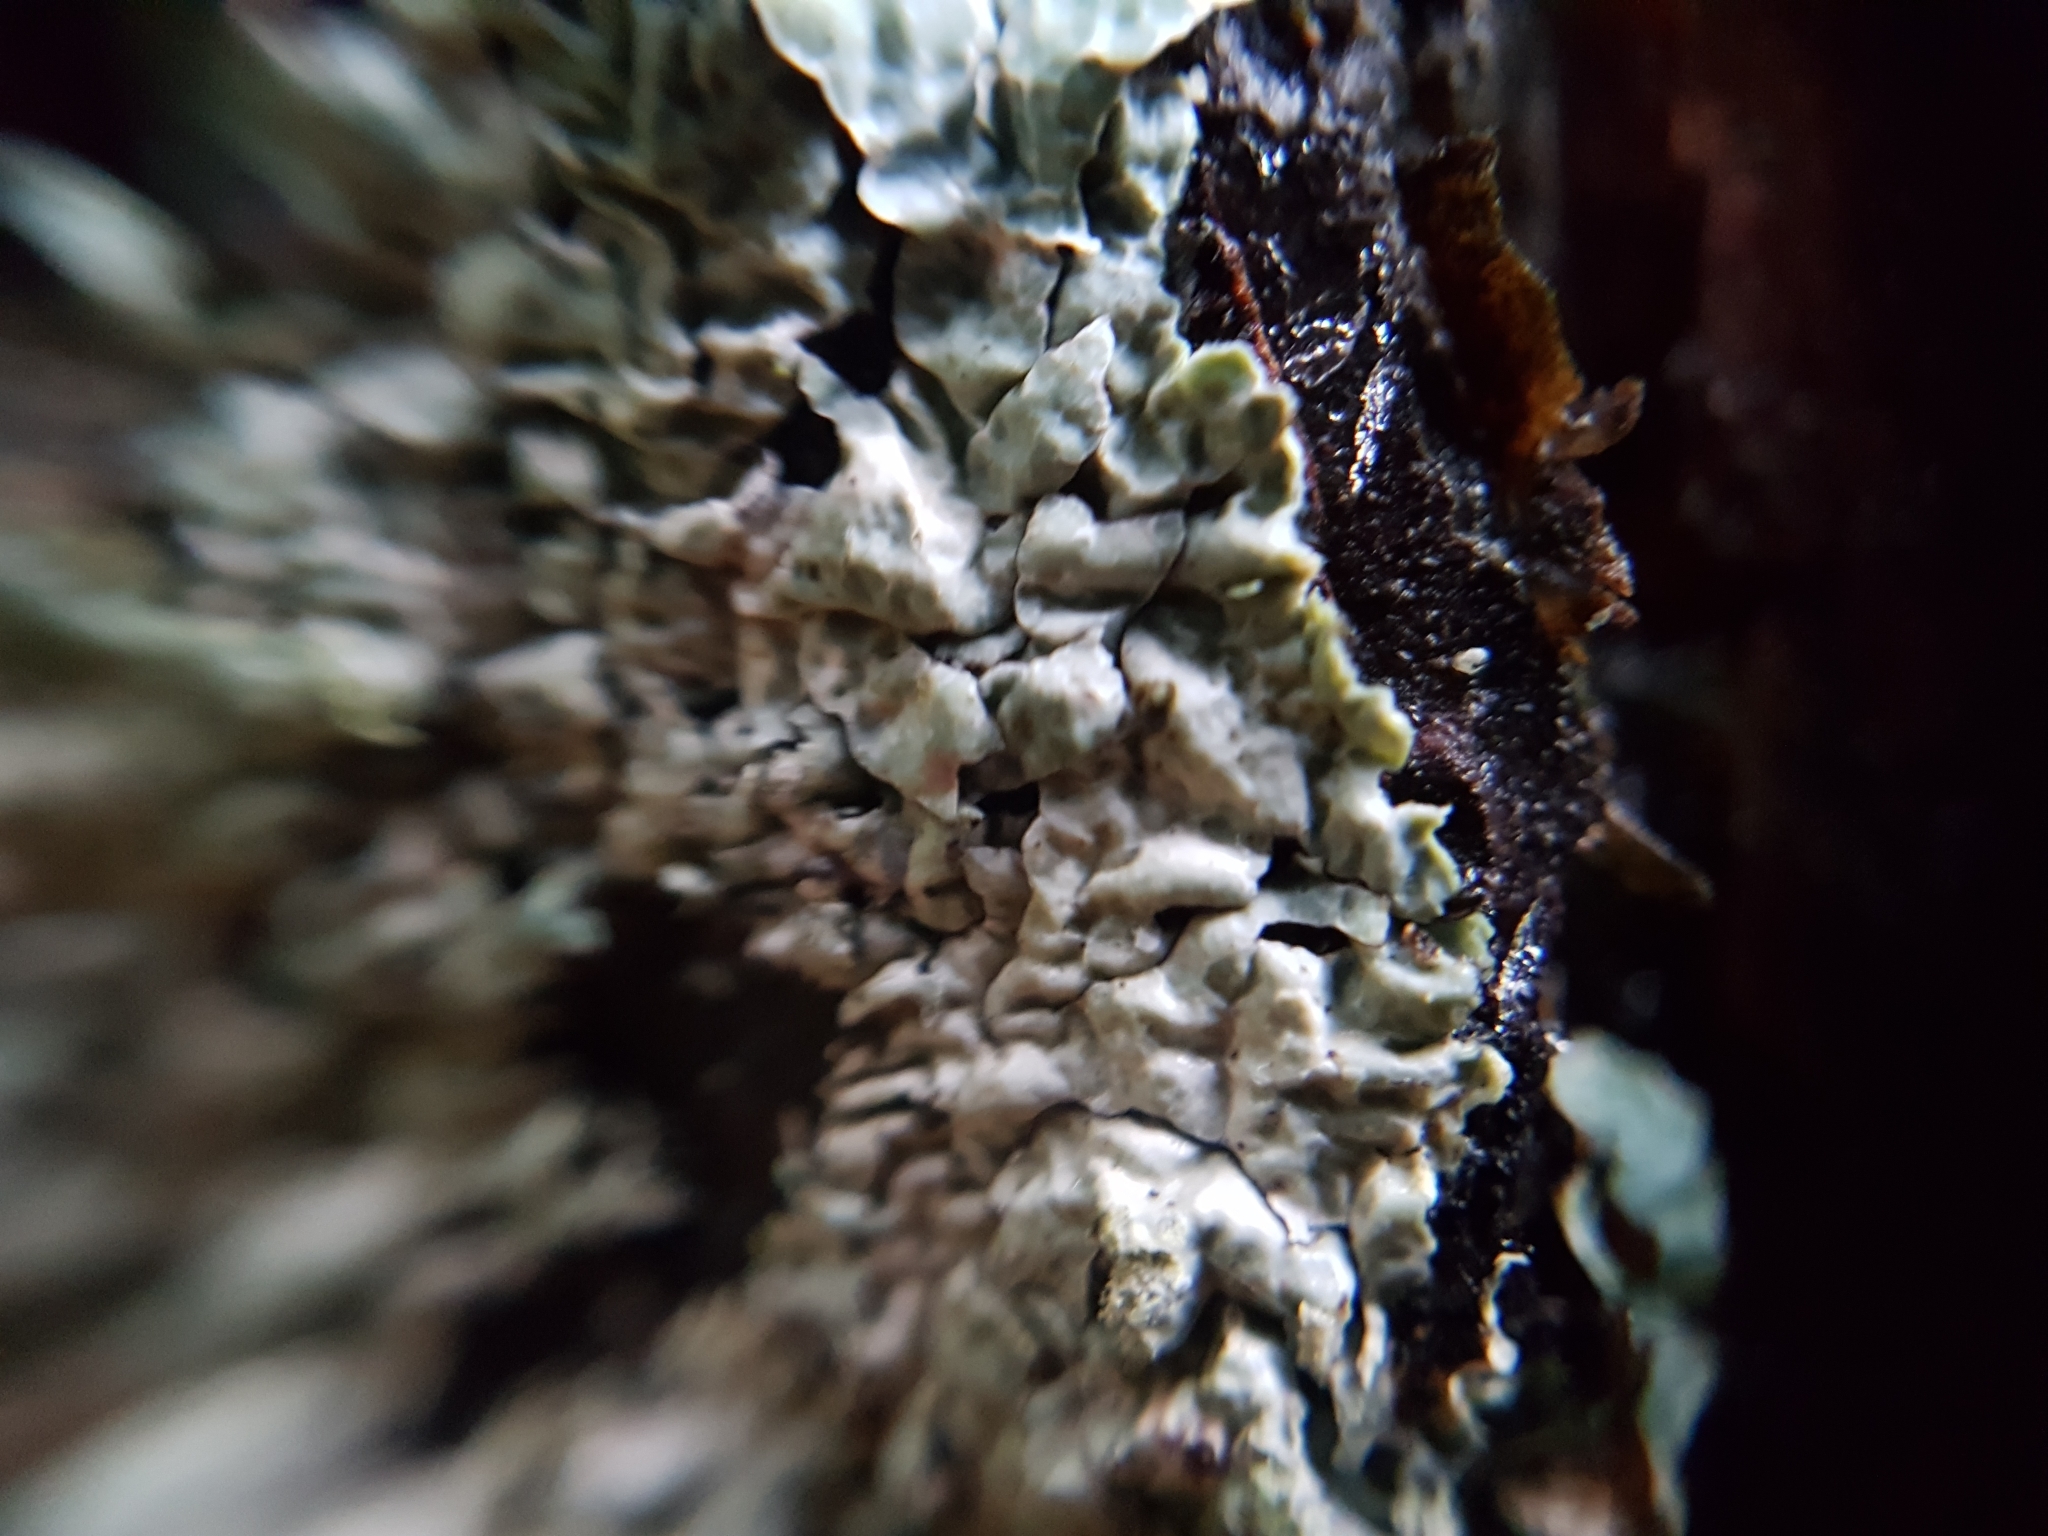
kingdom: Fungi
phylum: Ascomycota
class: Lecanoromycetes
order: Lecanorales
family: Parmeliaceae
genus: Parmelia
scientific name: Parmelia sulcata
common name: Netted shield lichen
